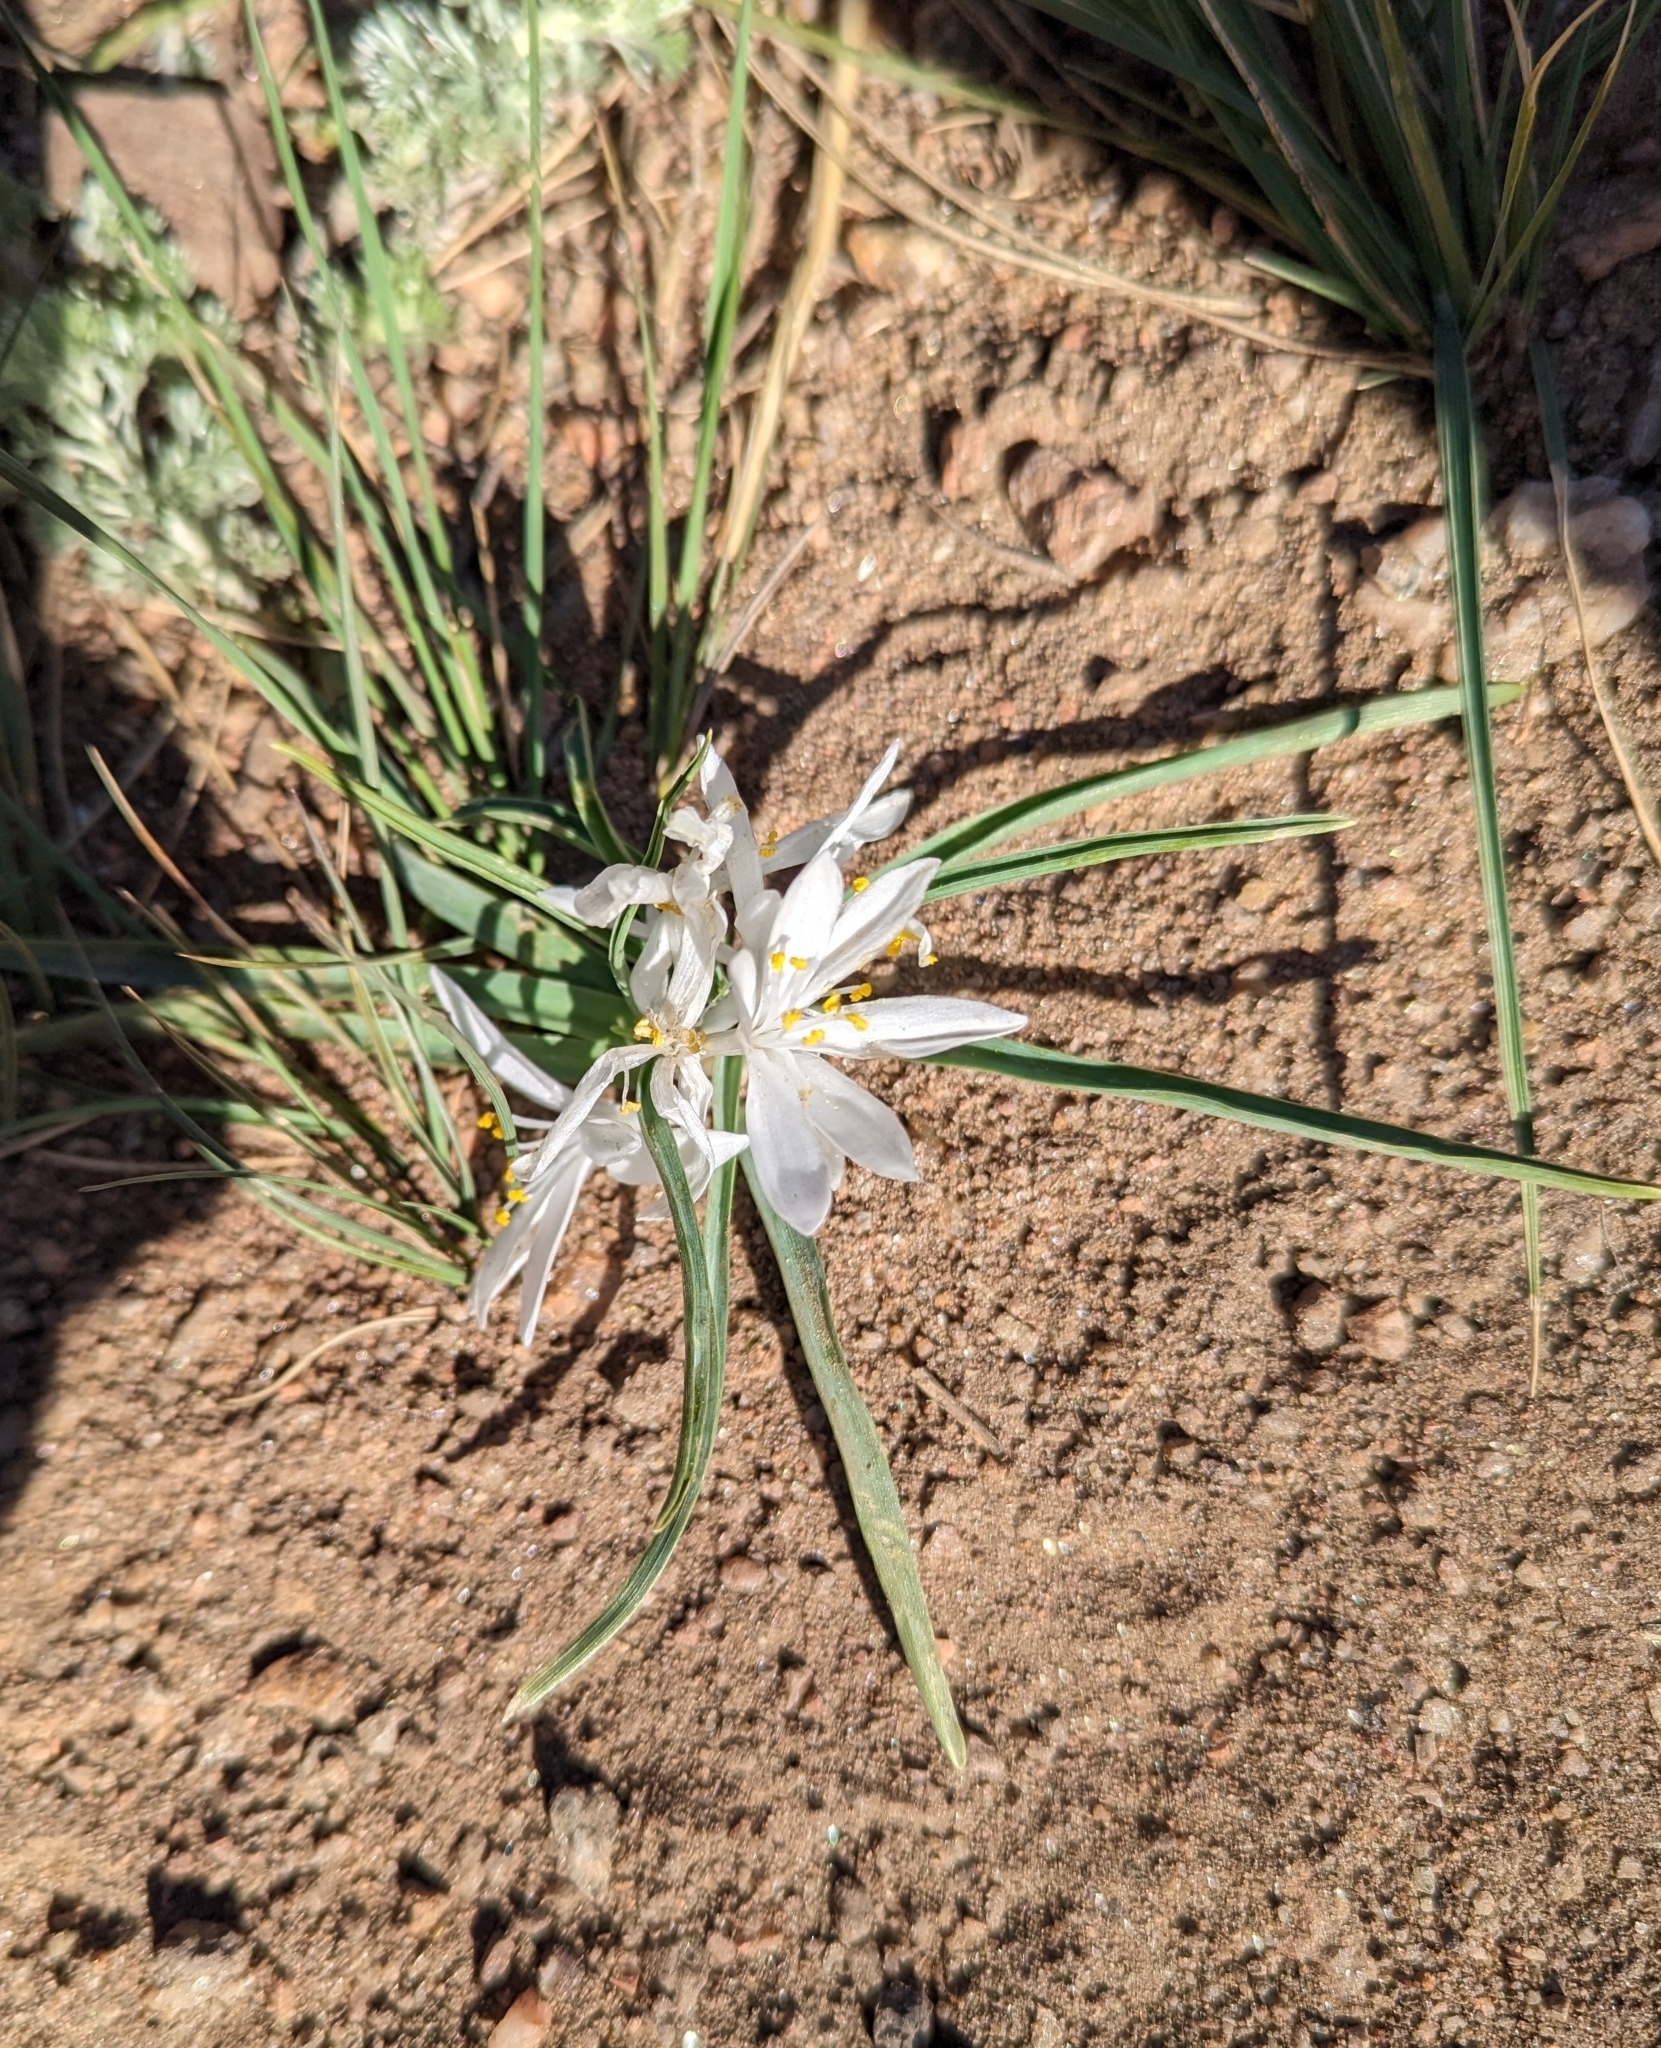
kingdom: Plantae
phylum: Tracheophyta
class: Liliopsida
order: Asparagales
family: Asparagaceae
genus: Leucocrinum
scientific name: Leucocrinum montanum
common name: Mountain-lily
